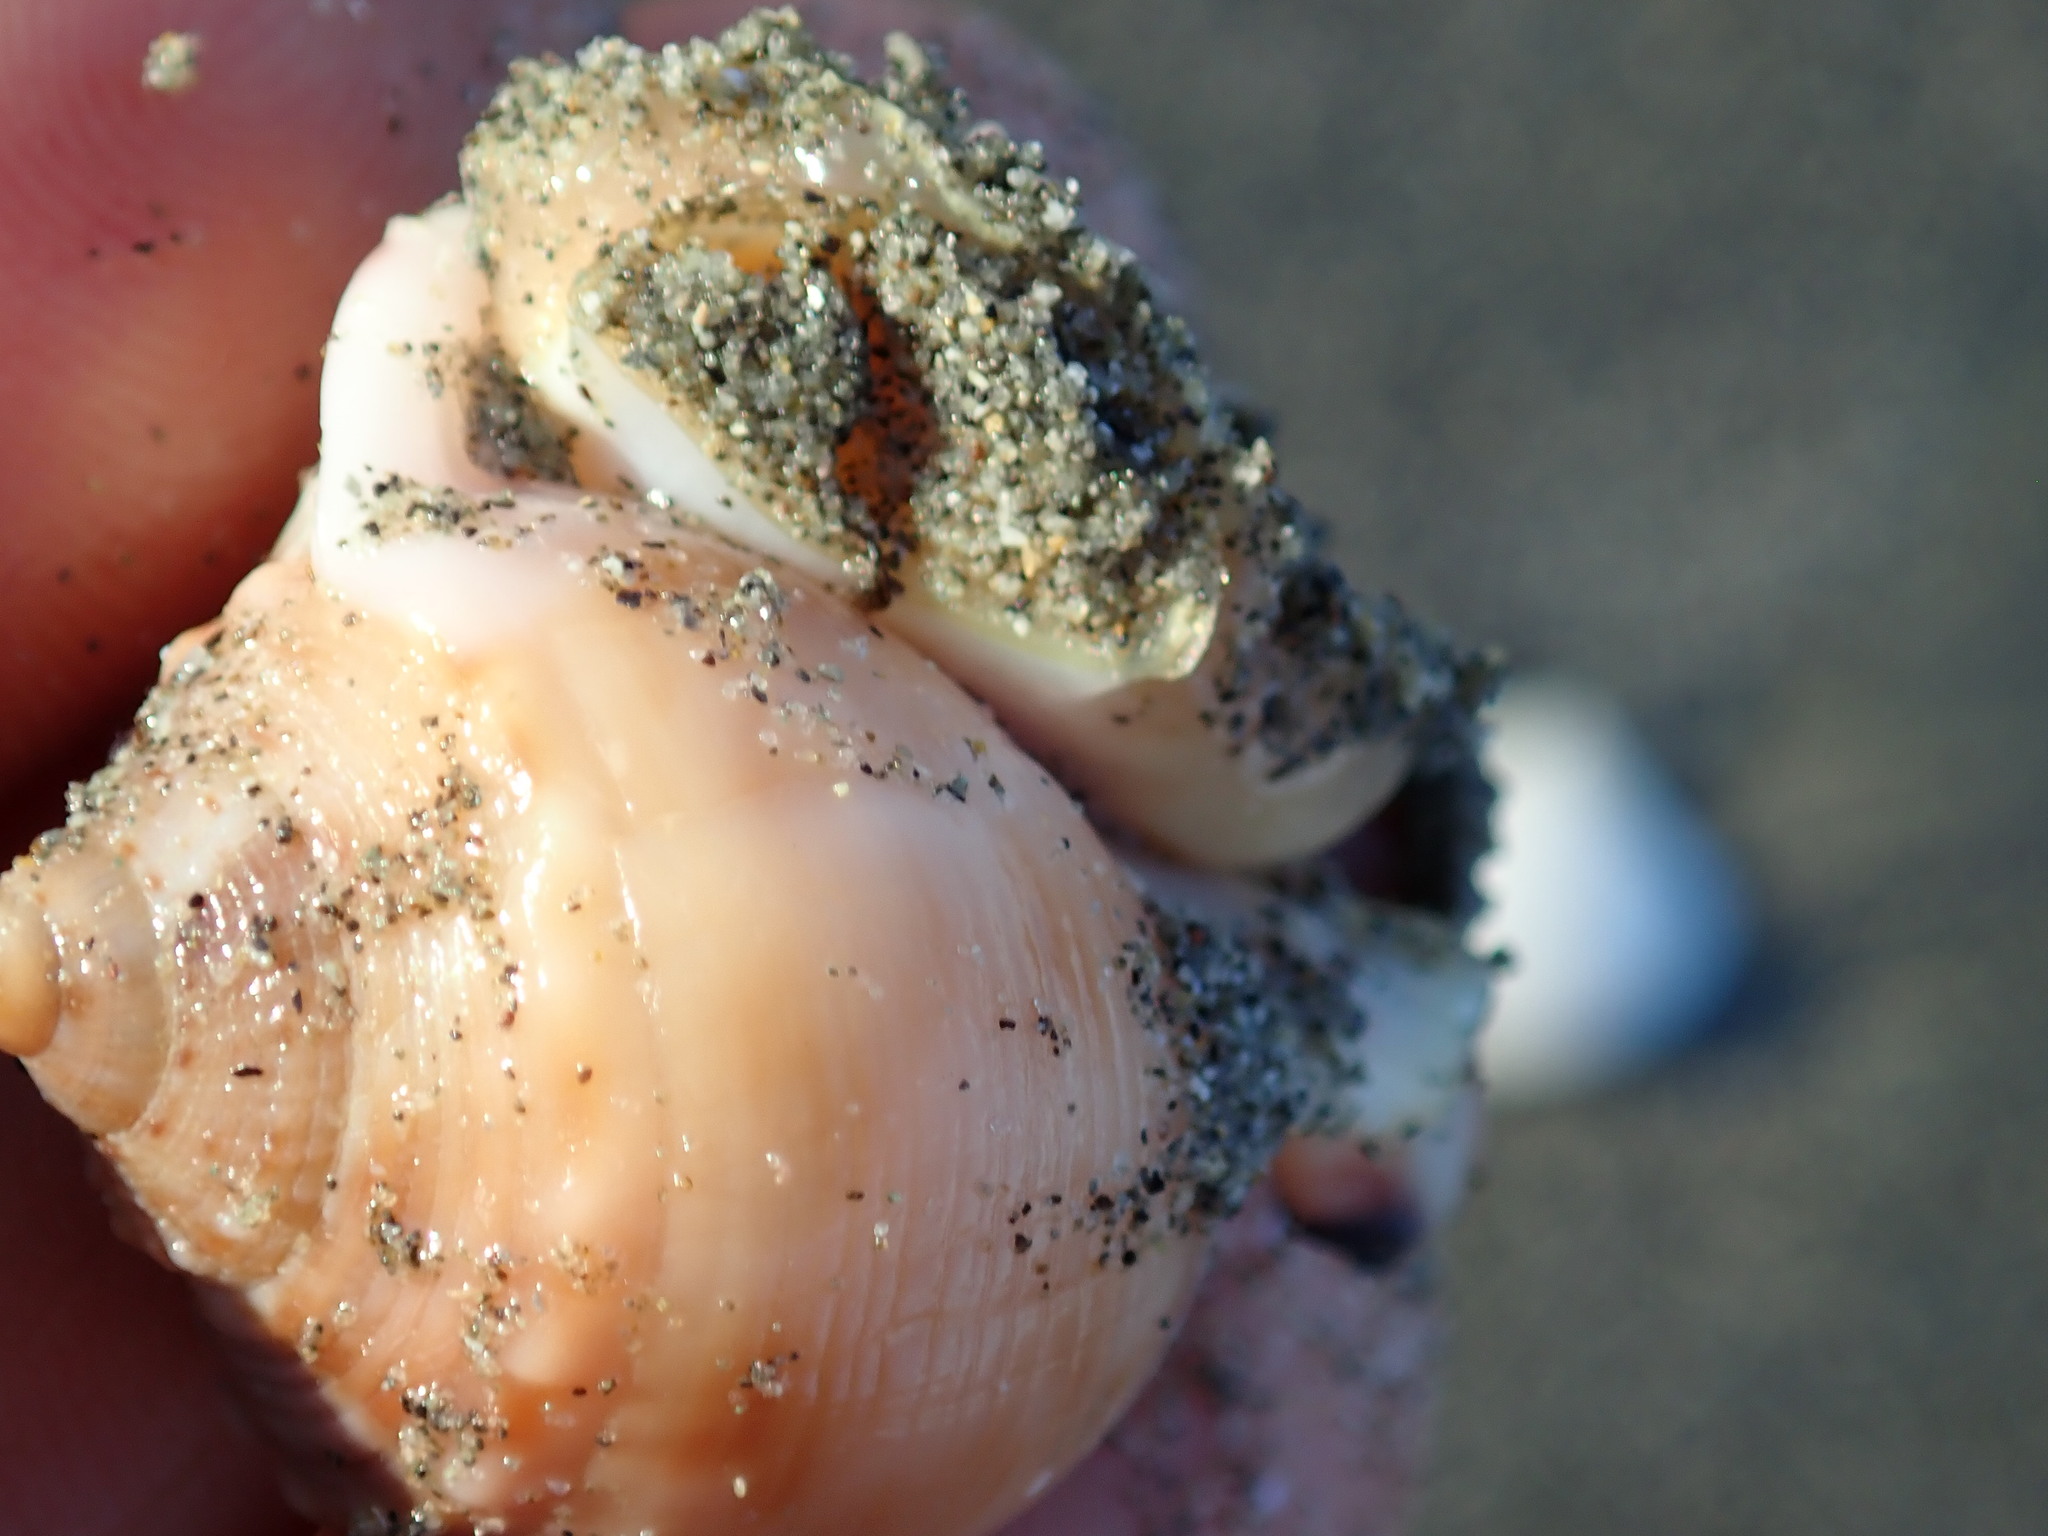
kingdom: Animalia
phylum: Mollusca
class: Gastropoda
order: Littorinimorpha
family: Cassidae
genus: Semicassis
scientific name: Semicassis pyrum
